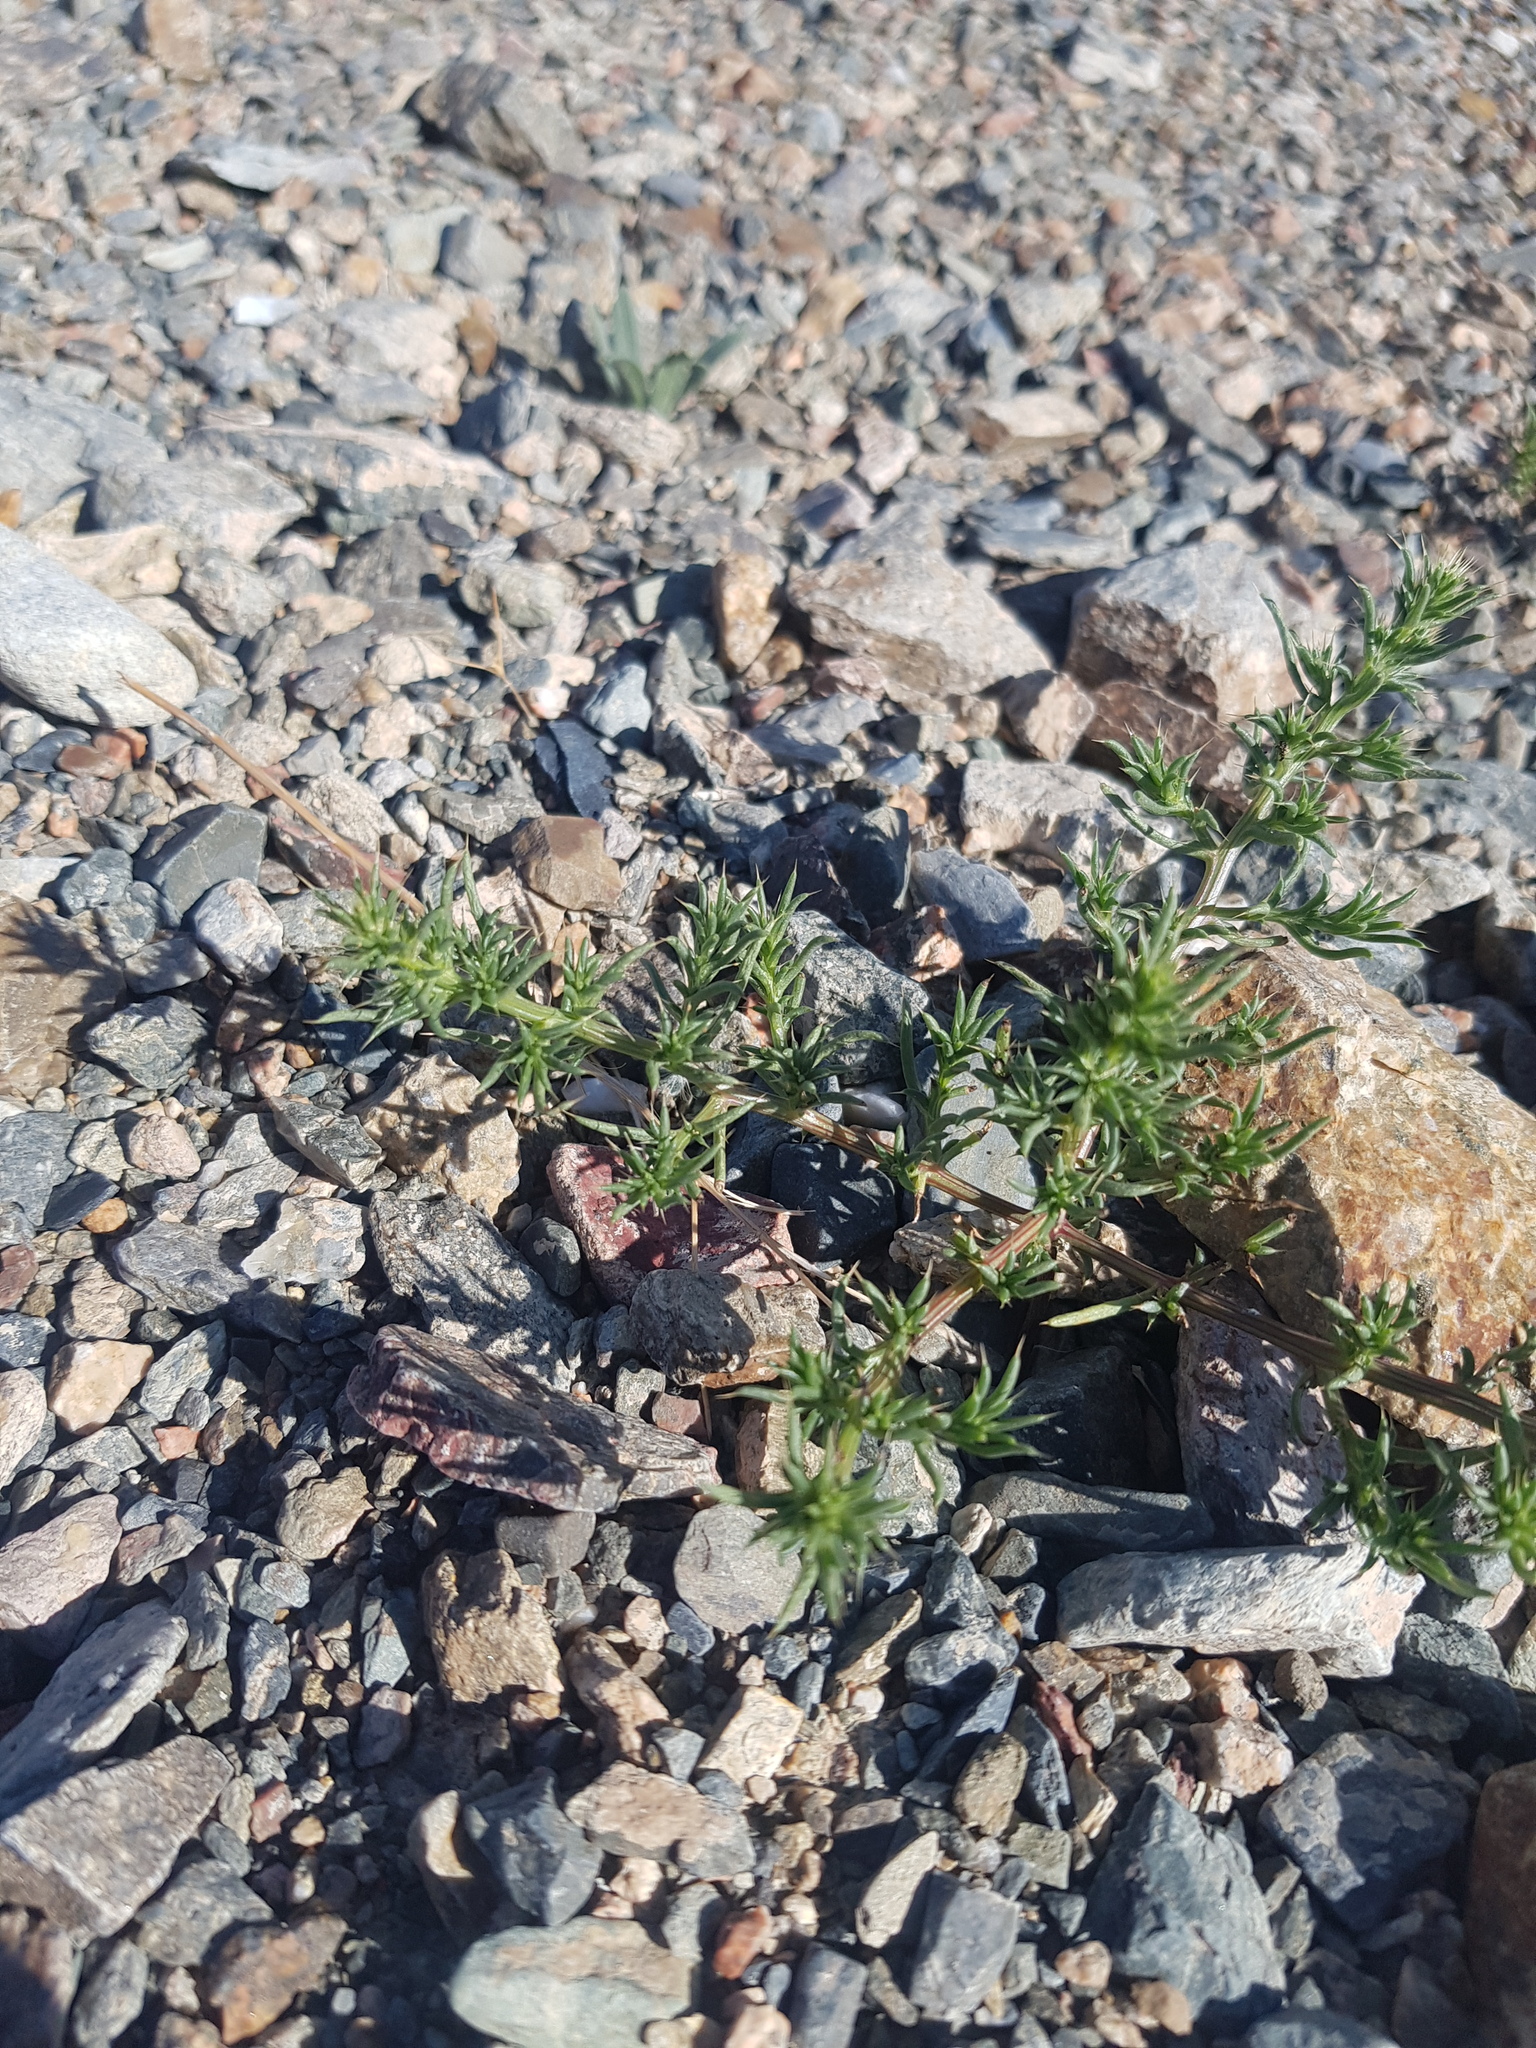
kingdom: Plantae
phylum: Tracheophyta
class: Magnoliopsida
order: Caryophyllales
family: Amaranthaceae
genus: Salsola
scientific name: Salsola collina
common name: Tumbleweed
